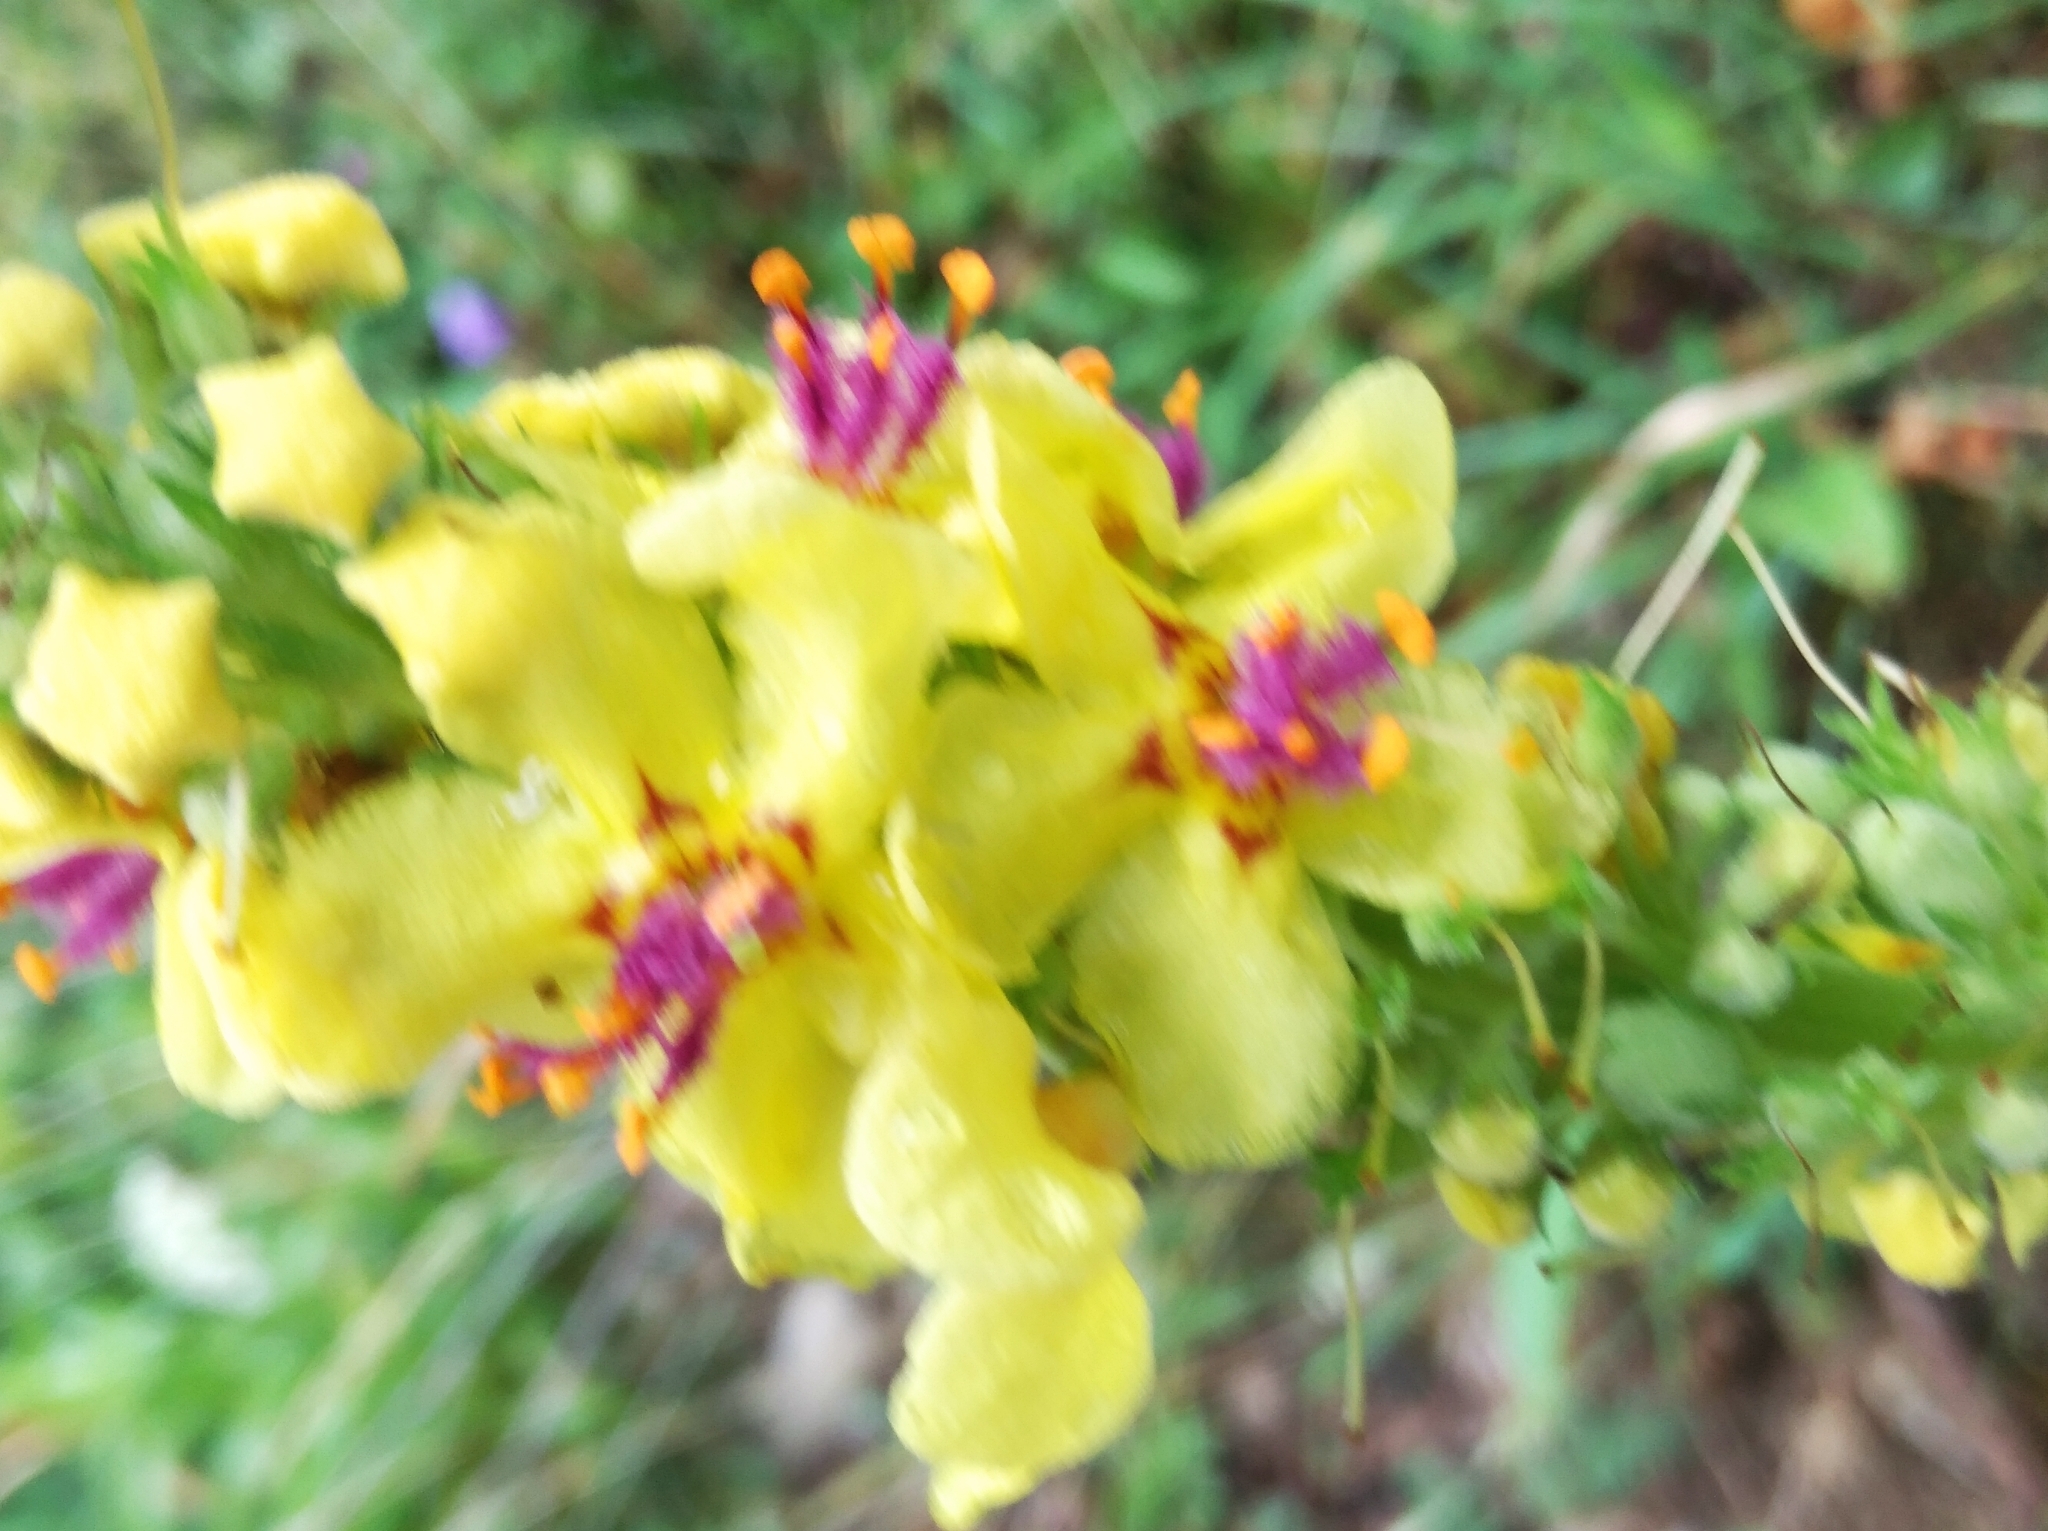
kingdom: Plantae
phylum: Tracheophyta
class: Magnoliopsida
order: Lamiales
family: Scrophulariaceae
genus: Verbascum
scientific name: Verbascum nigrum
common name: Dark mullein
